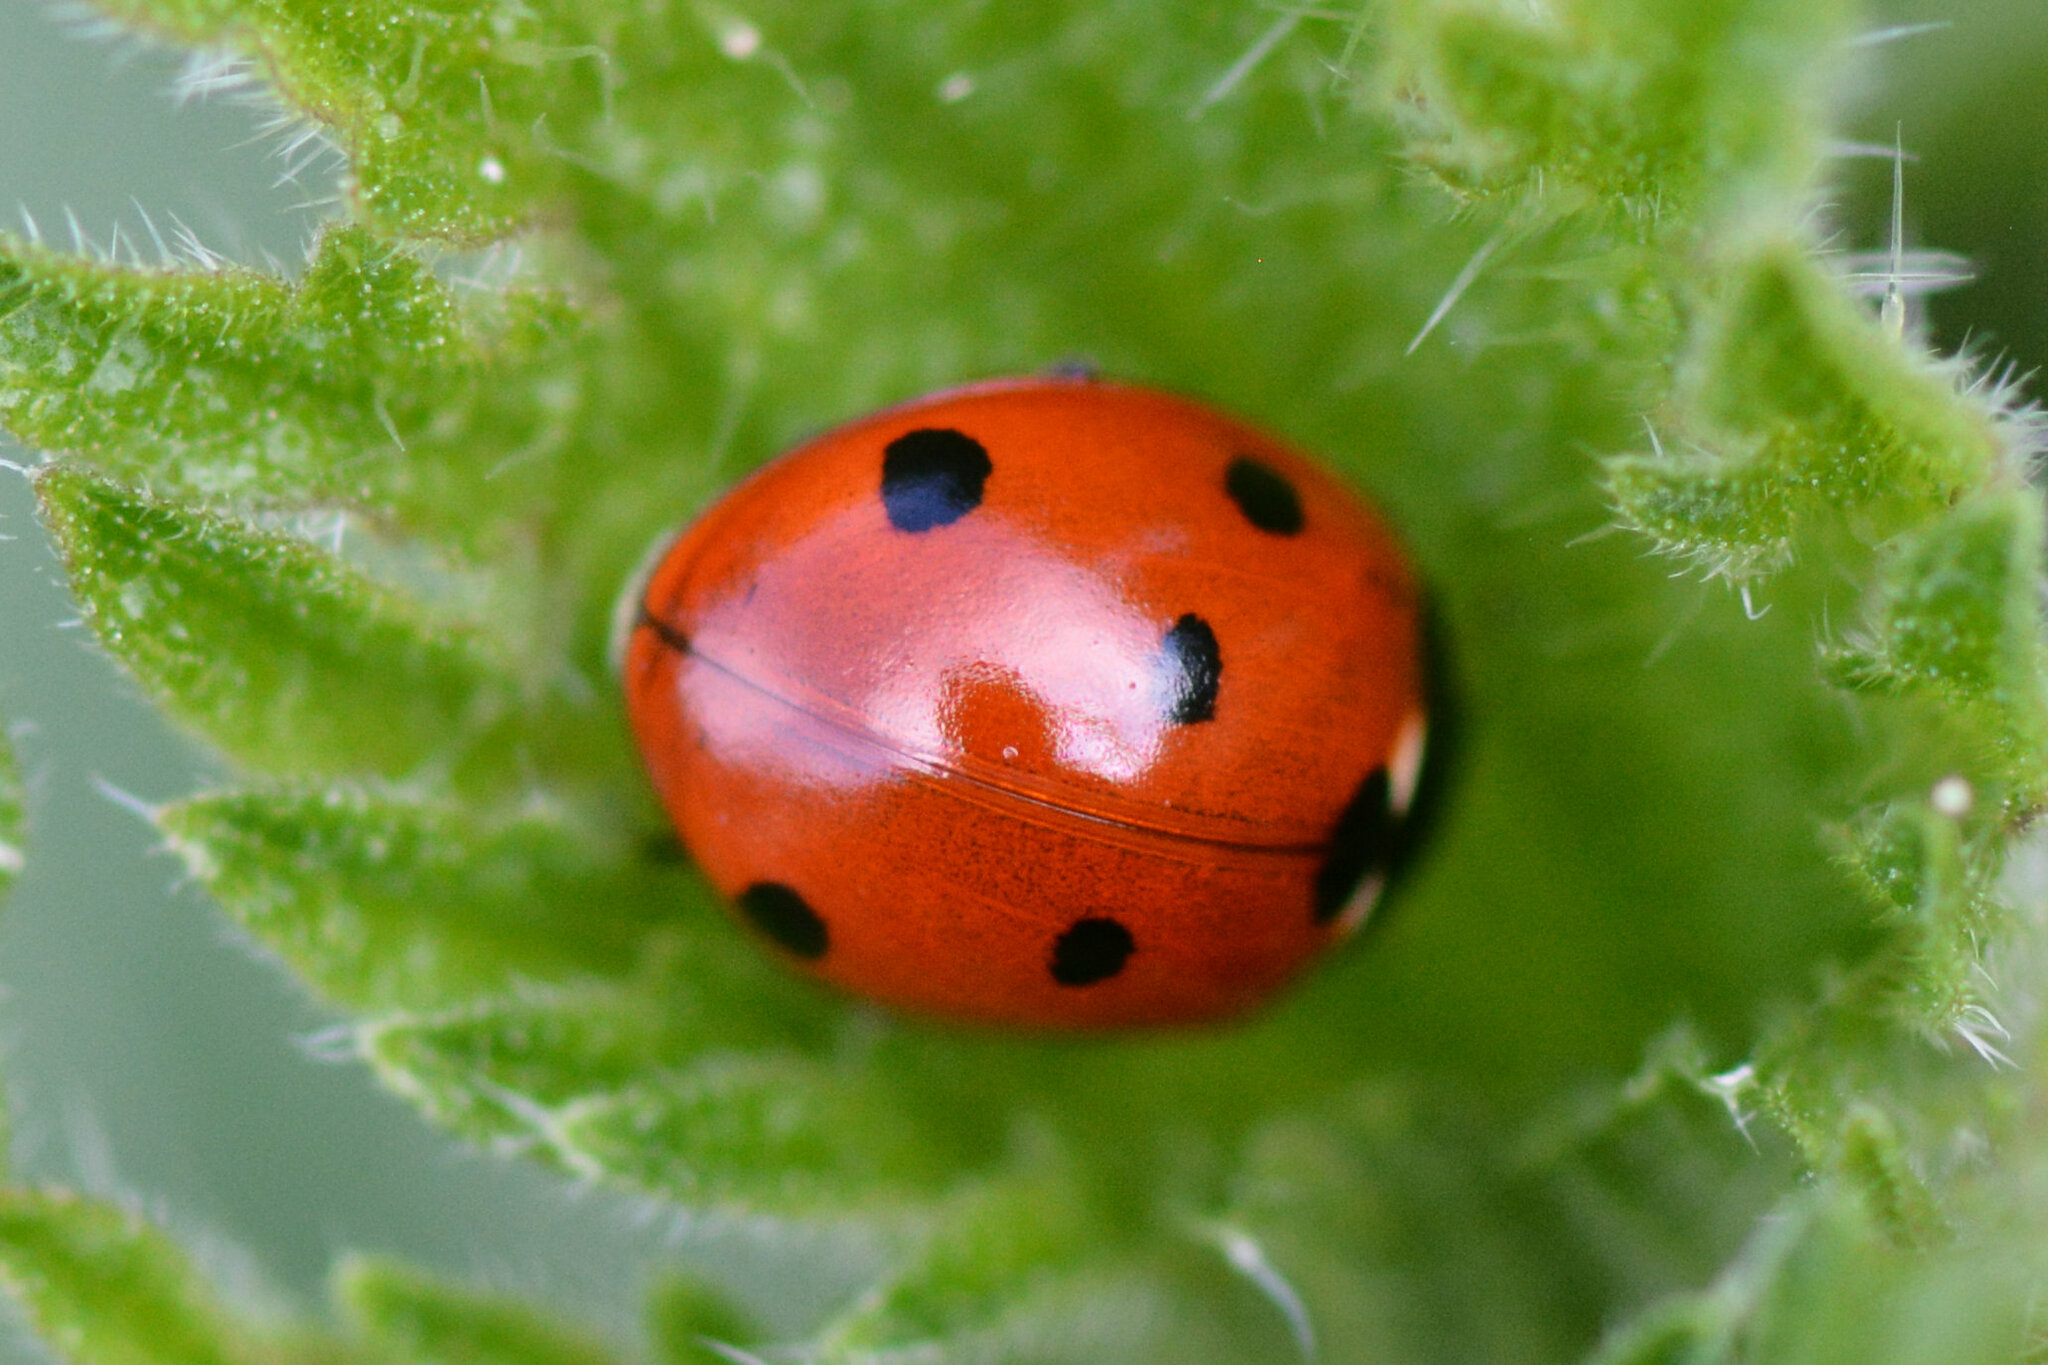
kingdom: Animalia
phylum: Arthropoda
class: Insecta
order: Coleoptera
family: Coccinellidae
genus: Coccinella
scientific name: Coccinella septempunctata
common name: Sevenspotted lady beetle
